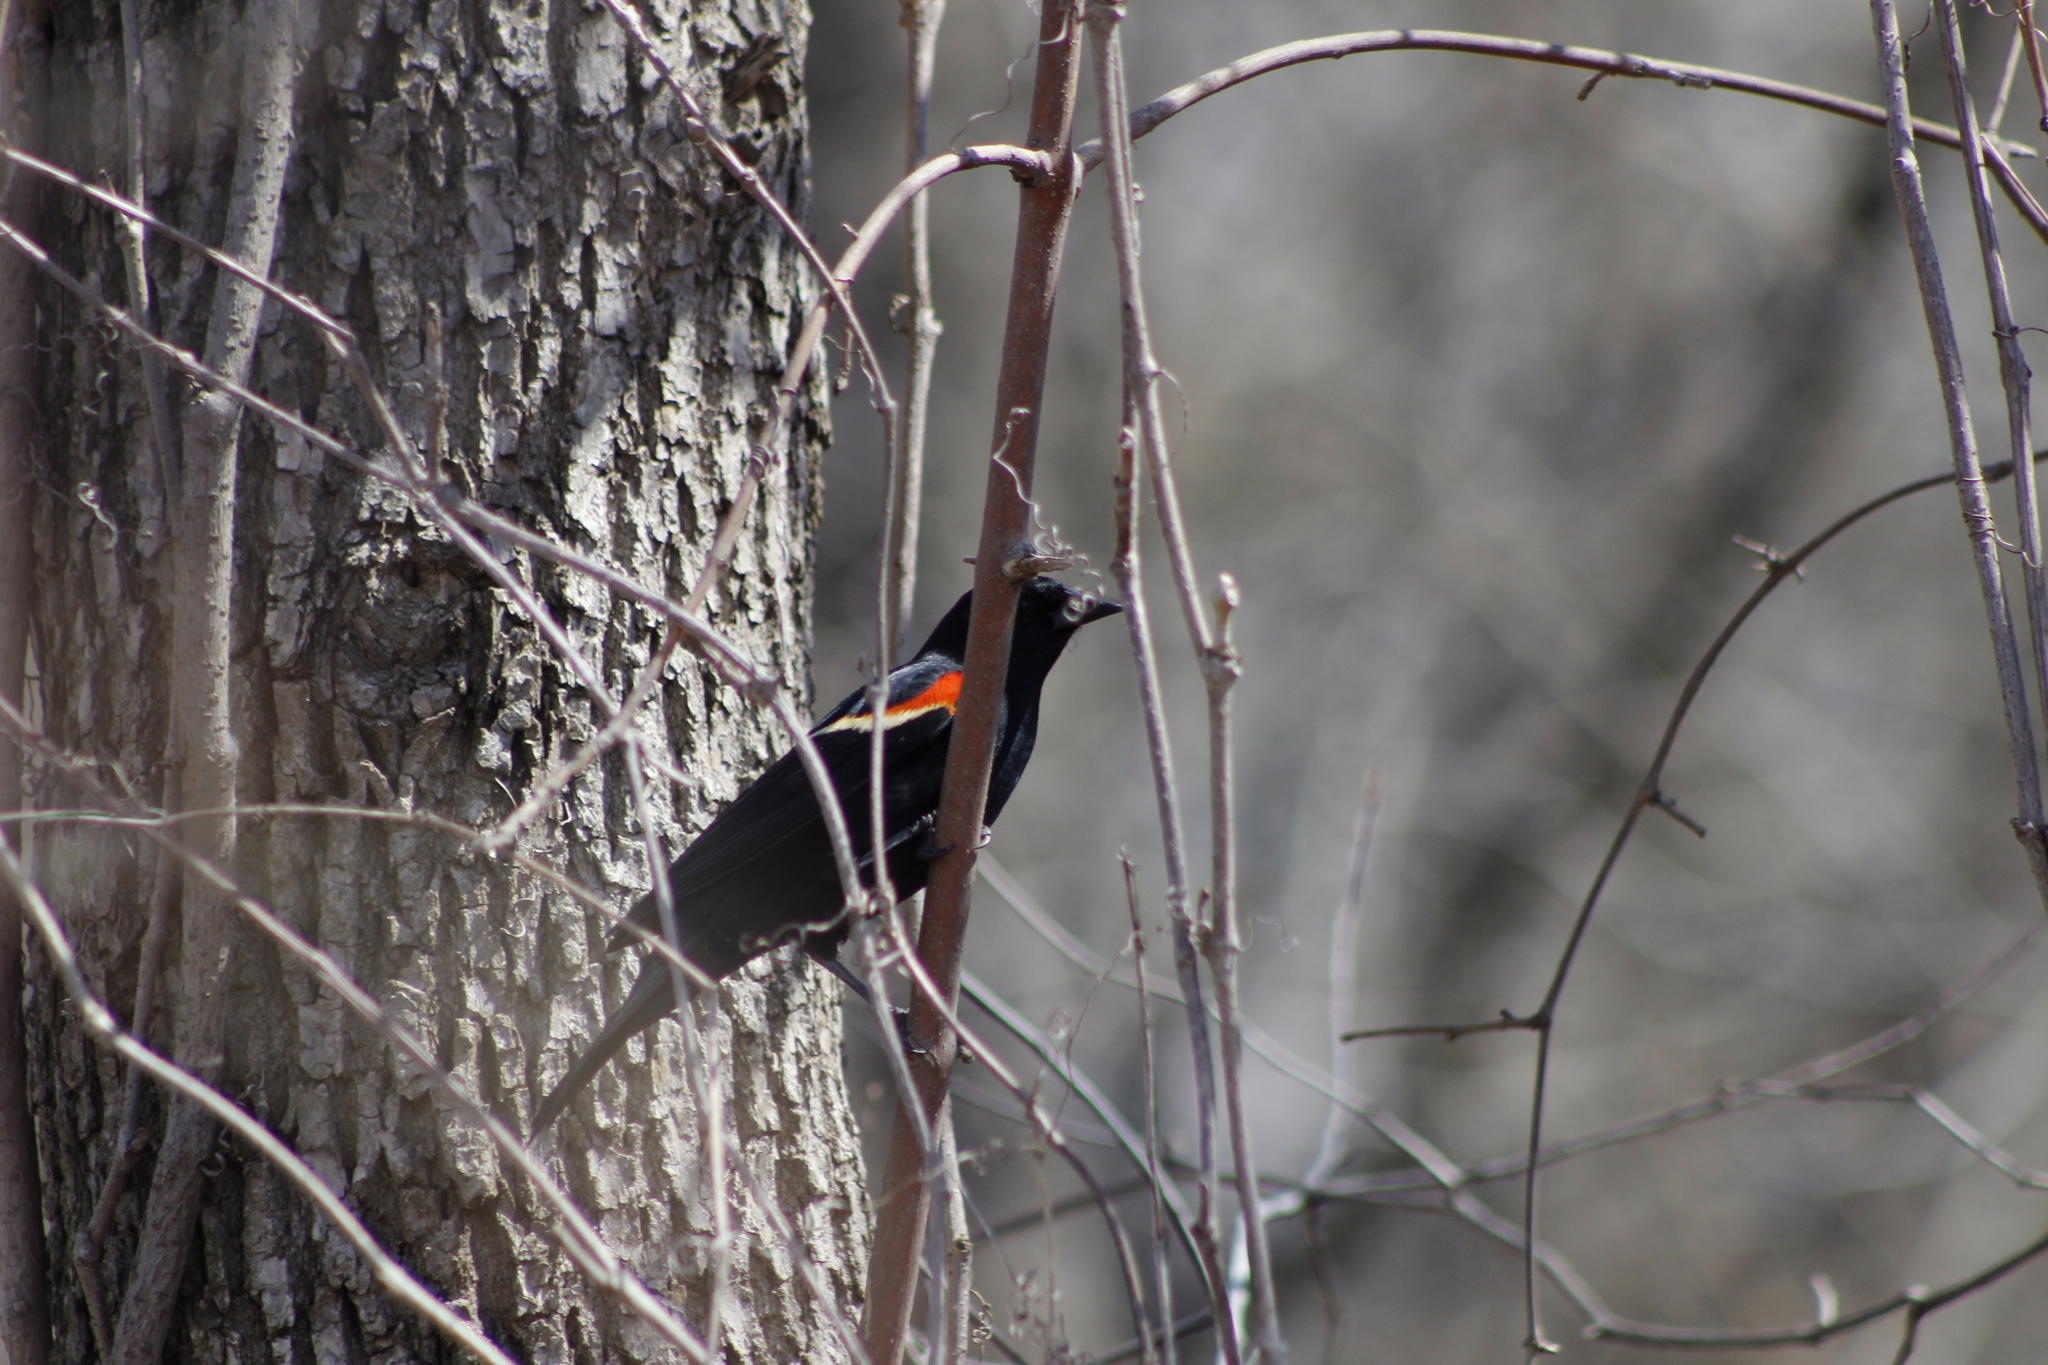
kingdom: Animalia
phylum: Chordata
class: Aves
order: Passeriformes
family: Icteridae
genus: Agelaius
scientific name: Agelaius phoeniceus
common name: Red-winged blackbird
